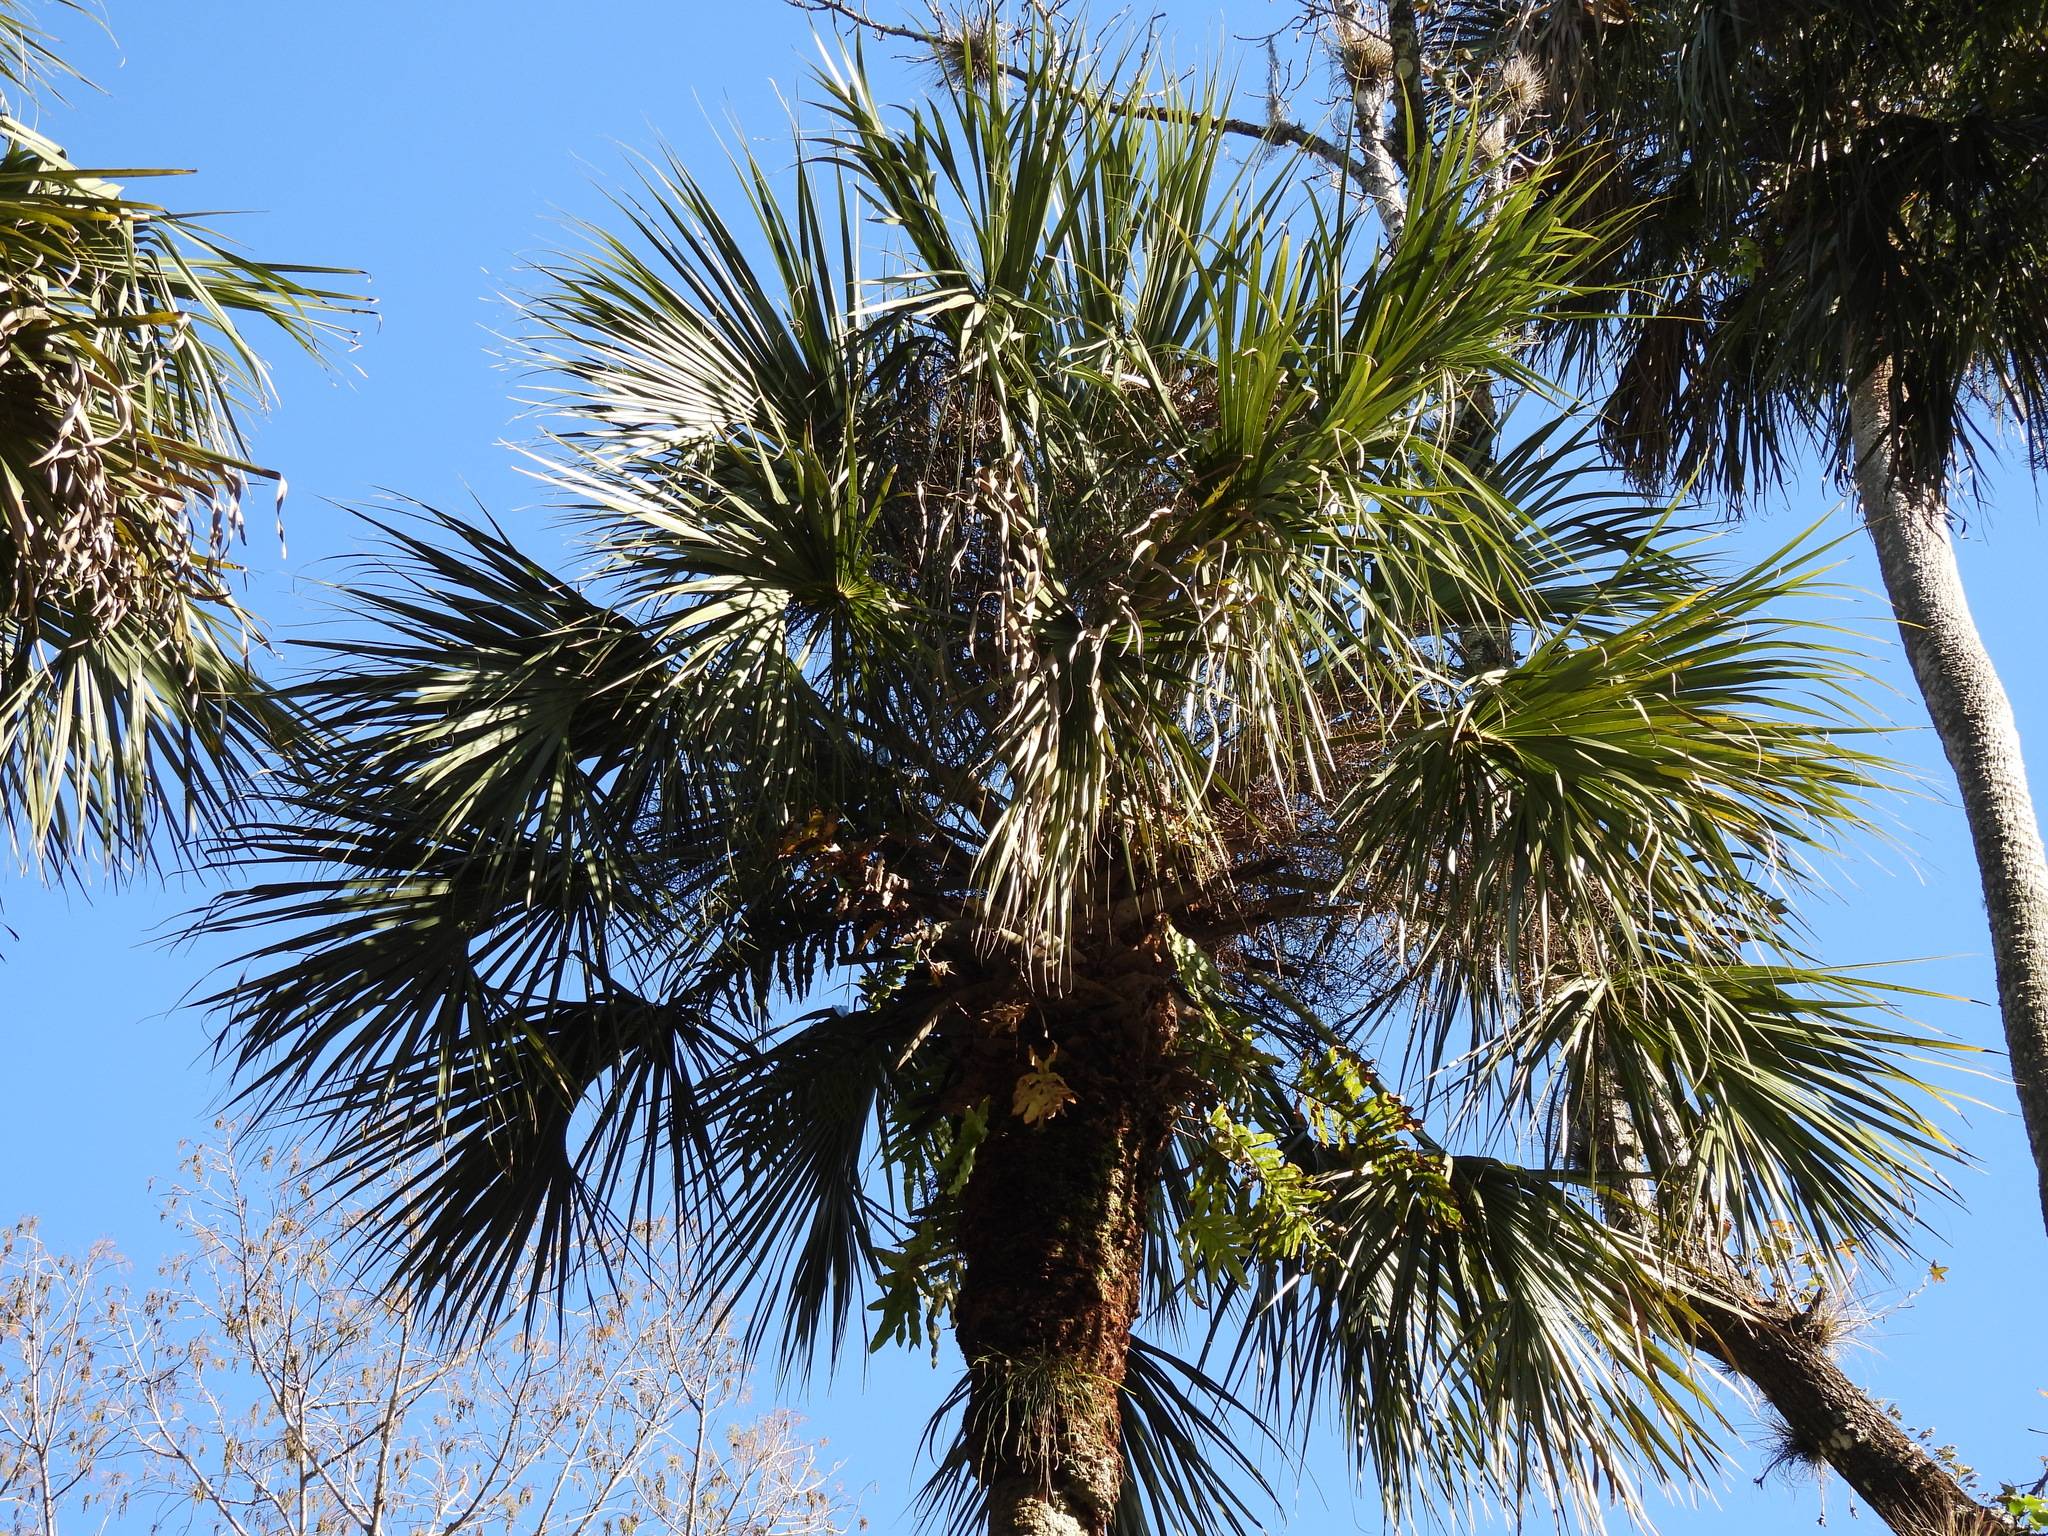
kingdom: Plantae
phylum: Tracheophyta
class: Liliopsida
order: Arecales
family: Arecaceae
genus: Sabal
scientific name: Sabal palmetto
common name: Blue palmetto
